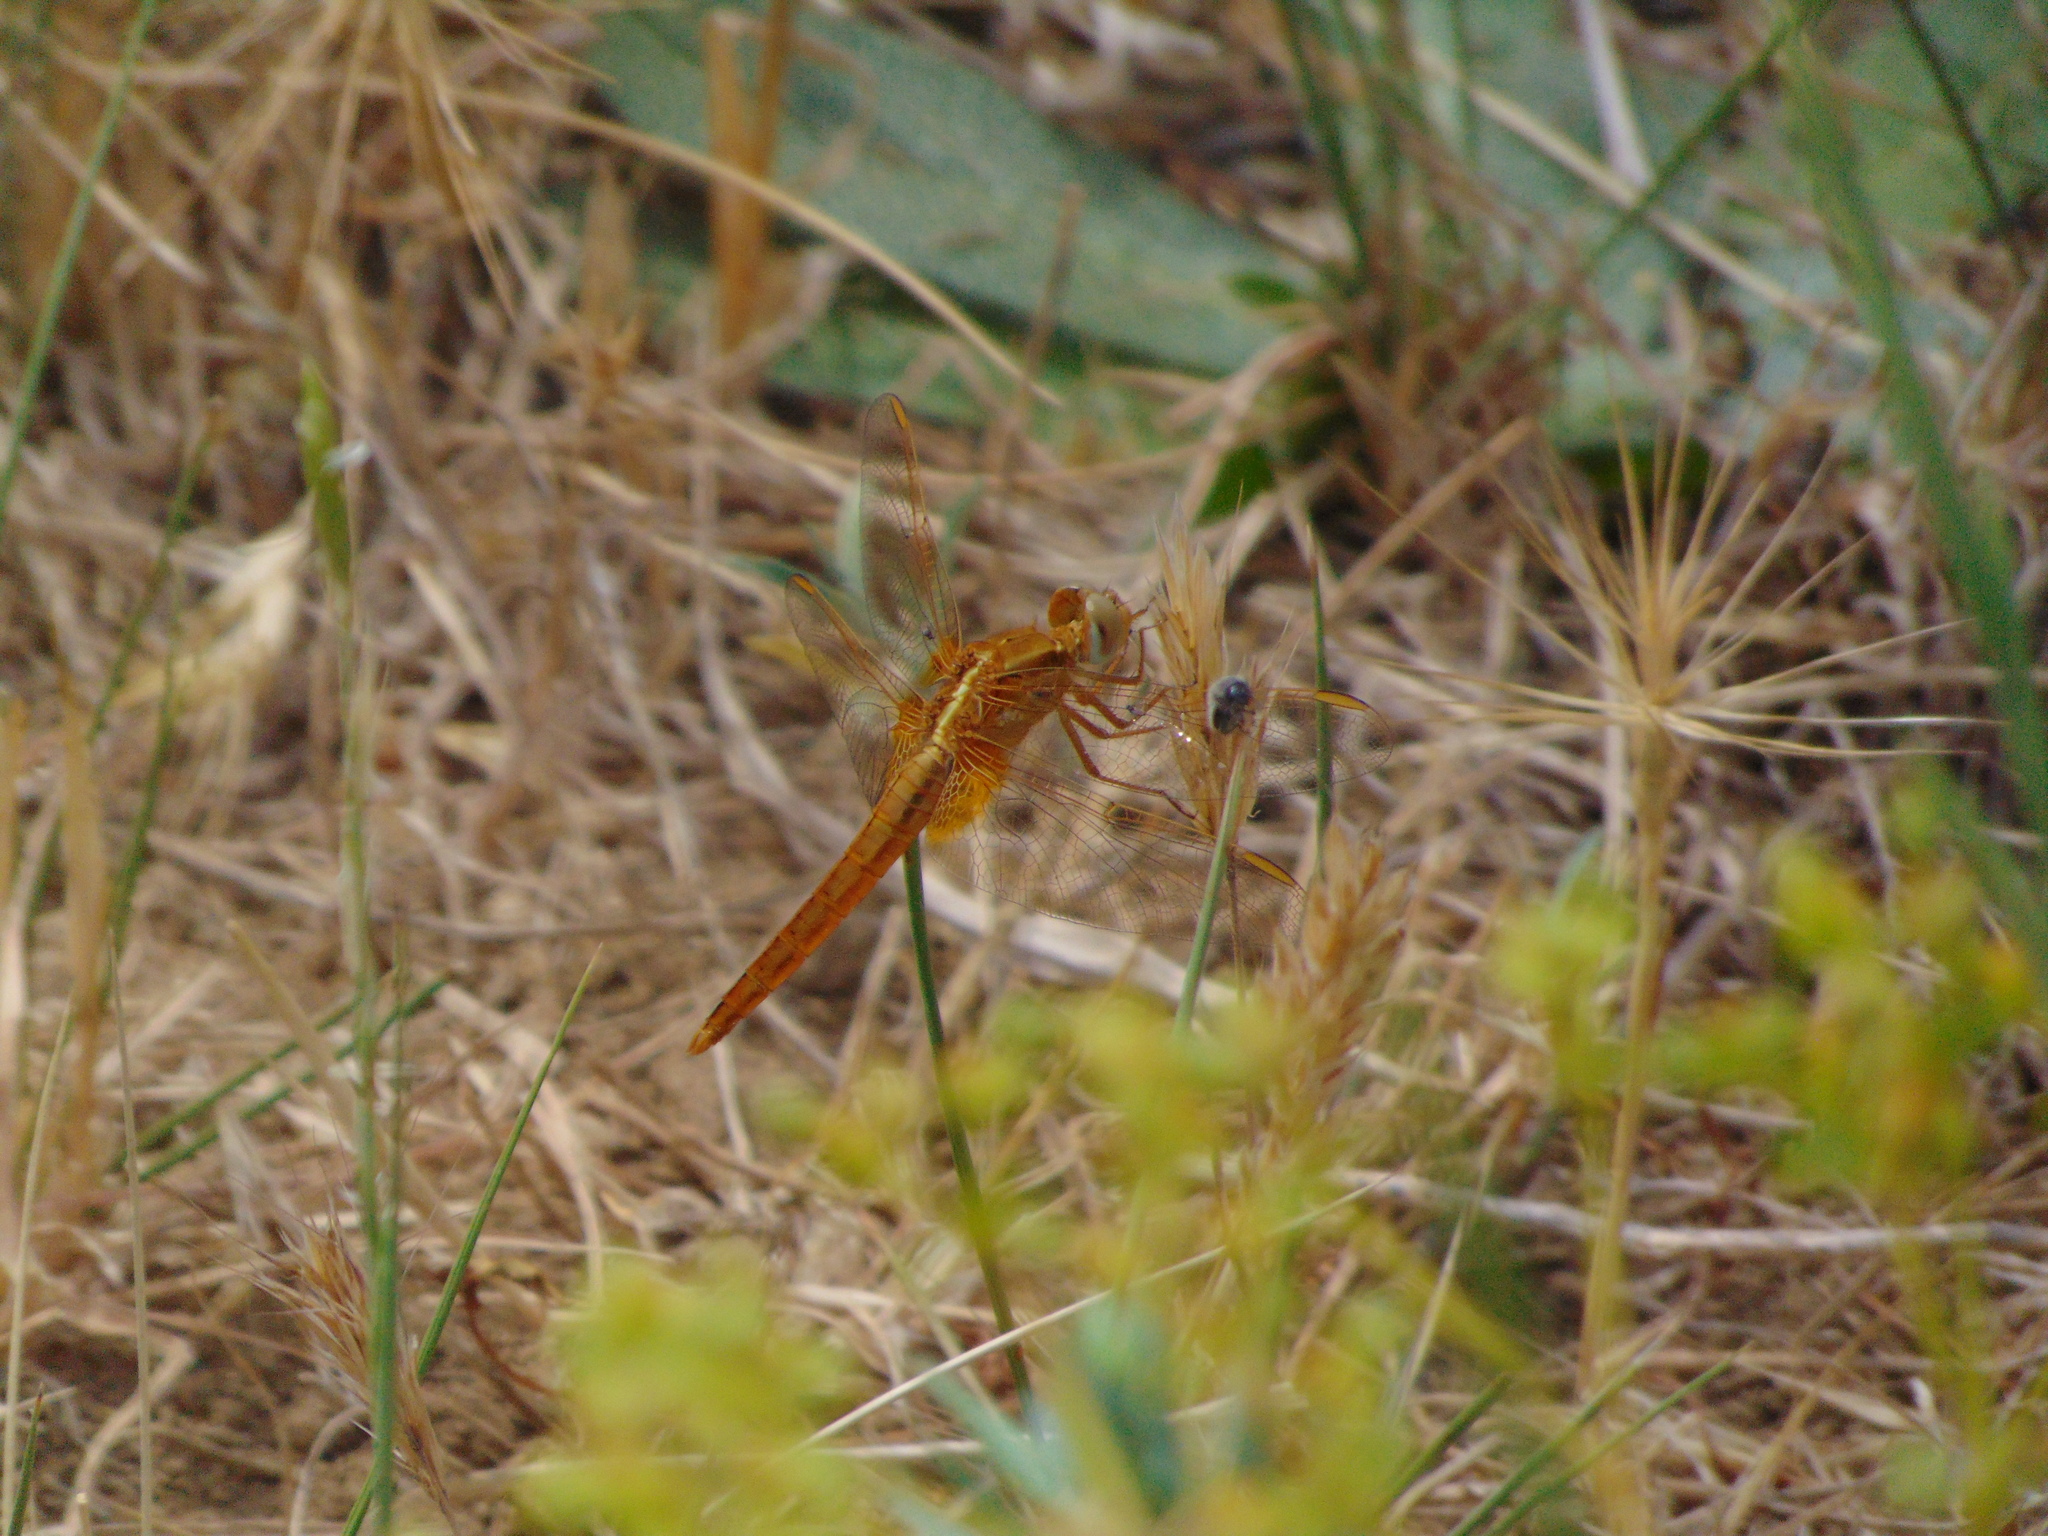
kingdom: Animalia
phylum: Arthropoda
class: Insecta
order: Odonata
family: Libellulidae
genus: Crocothemis
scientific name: Crocothemis erythraea
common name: Scarlet dragonfly
